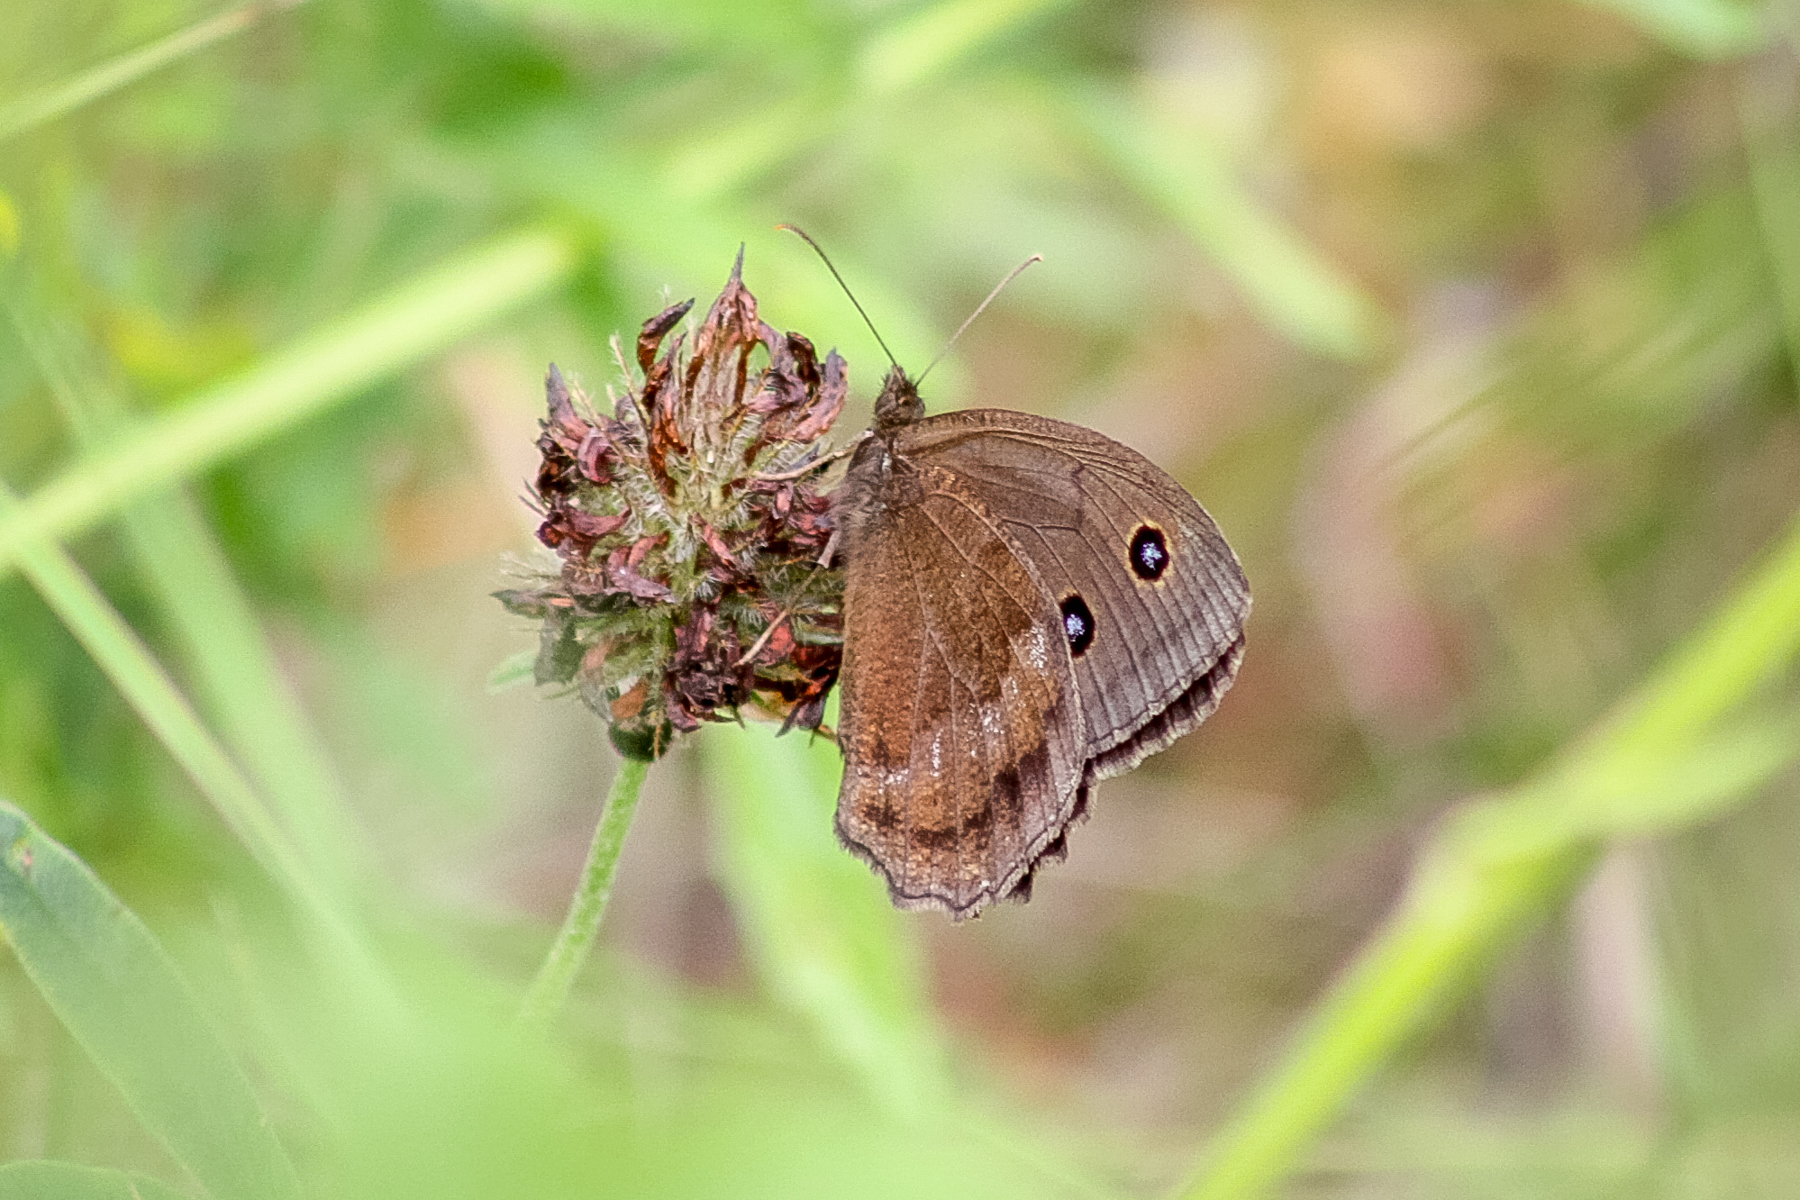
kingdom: Animalia
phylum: Arthropoda
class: Insecta
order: Lepidoptera
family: Nymphalidae
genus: Minois
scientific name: Minois dryas
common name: Dryad
